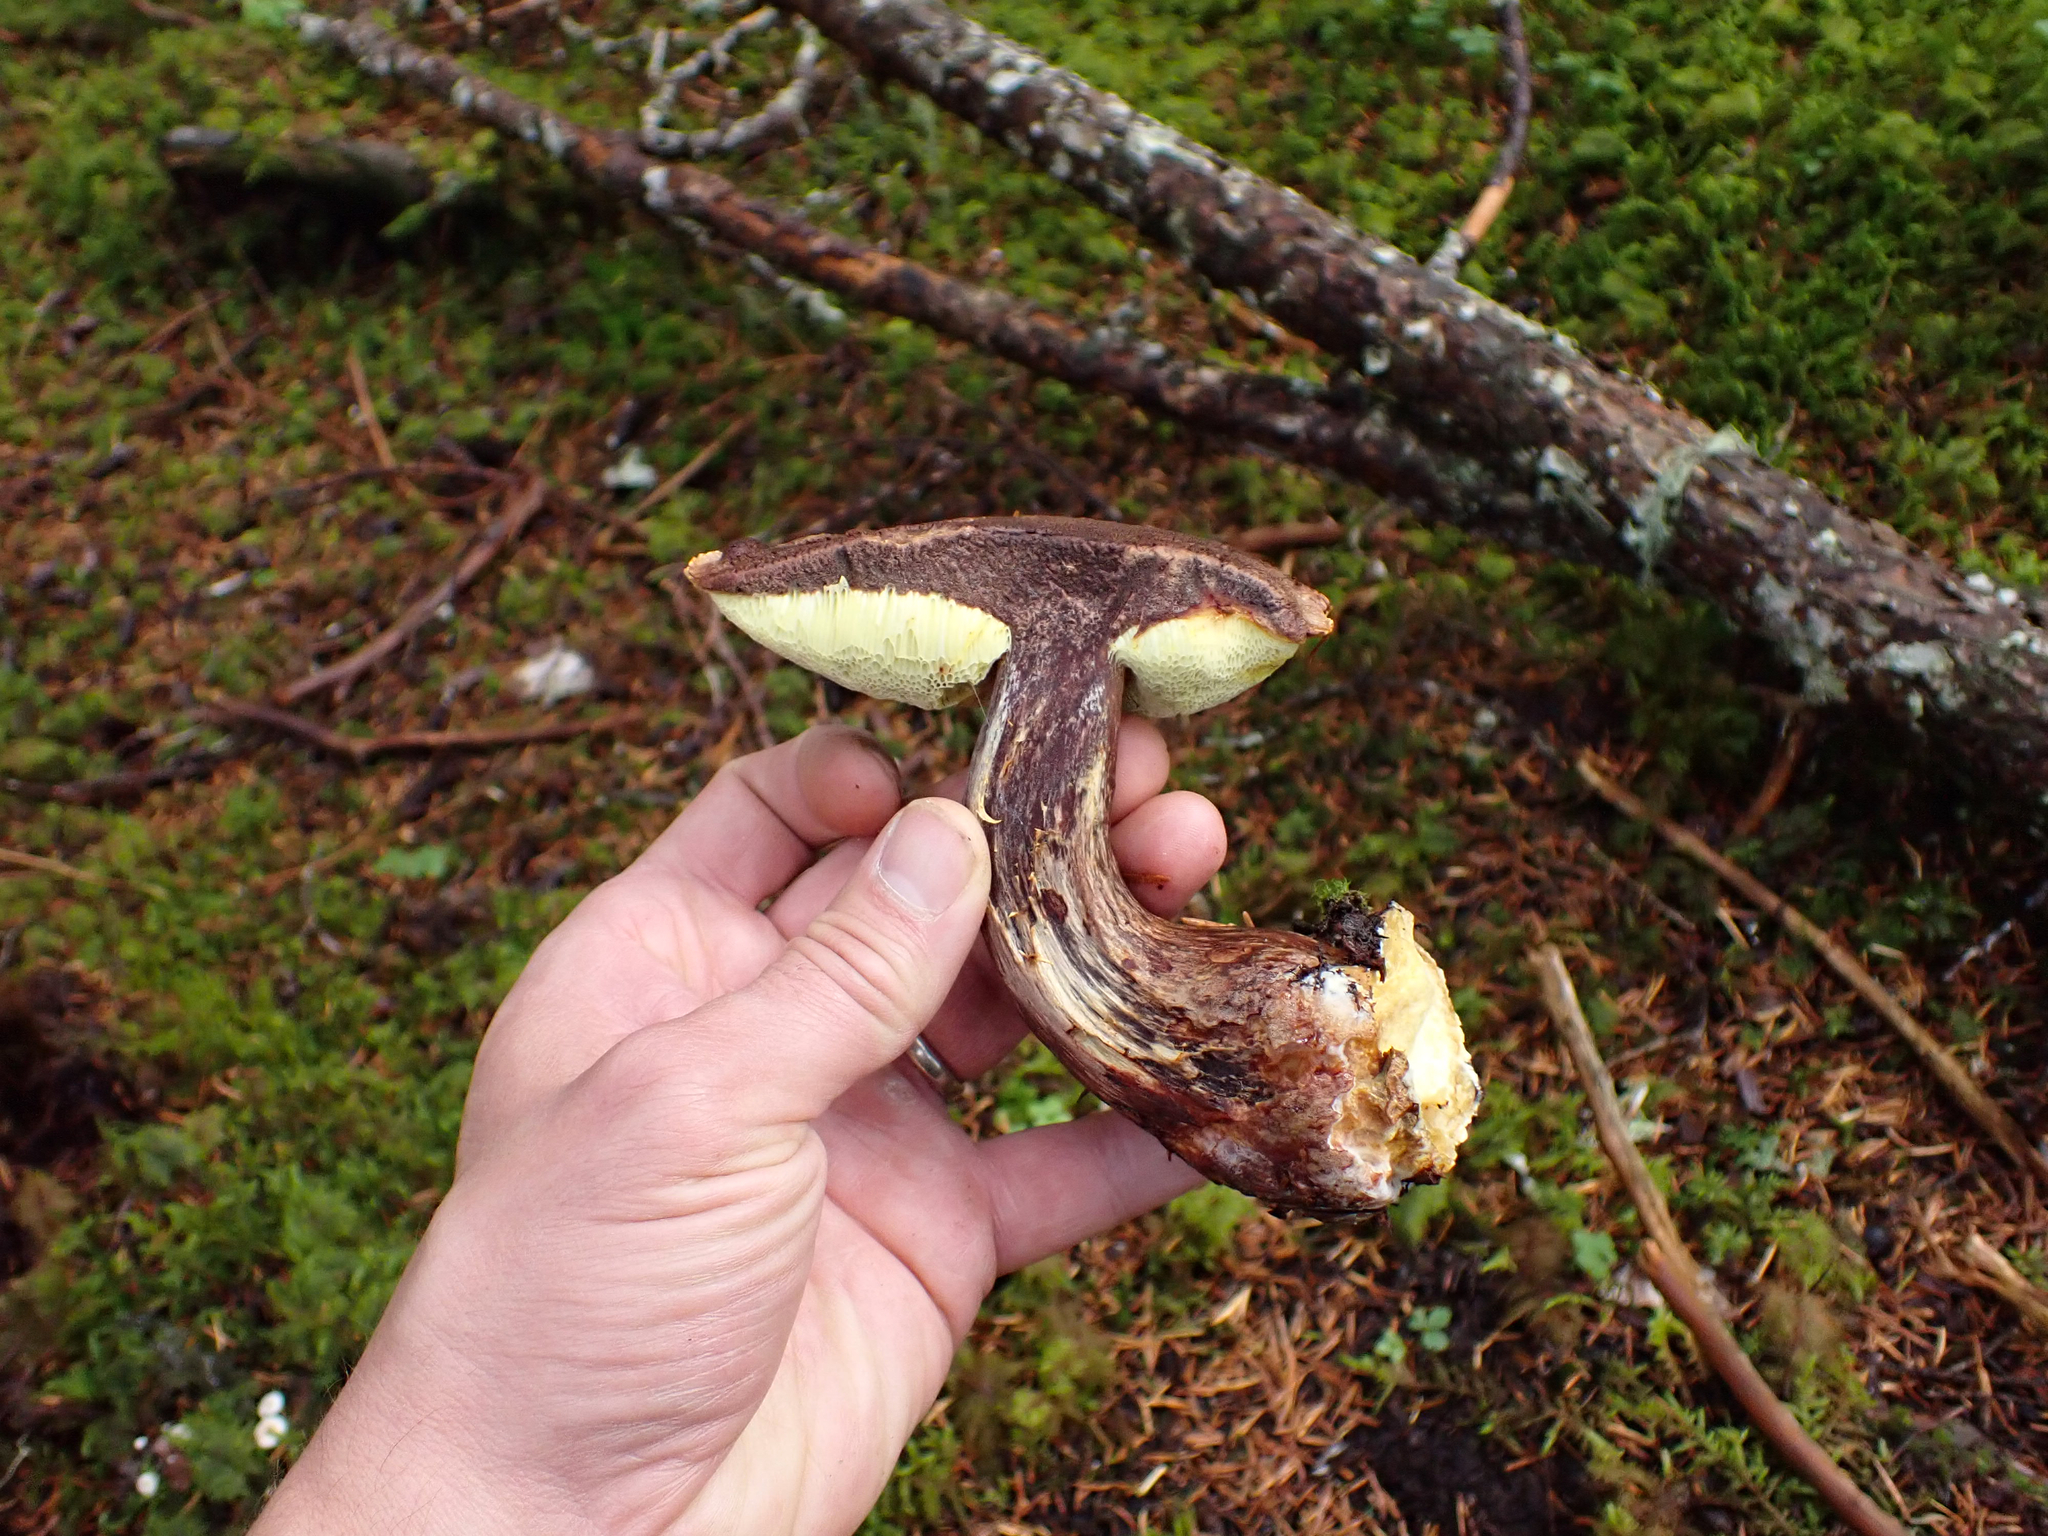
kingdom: Fungi
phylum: Basidiomycota
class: Agaricomycetes
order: Boletales
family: Boletaceae
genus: Aureoboletus
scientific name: Aureoboletus mirabilis
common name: Admirable bolete
